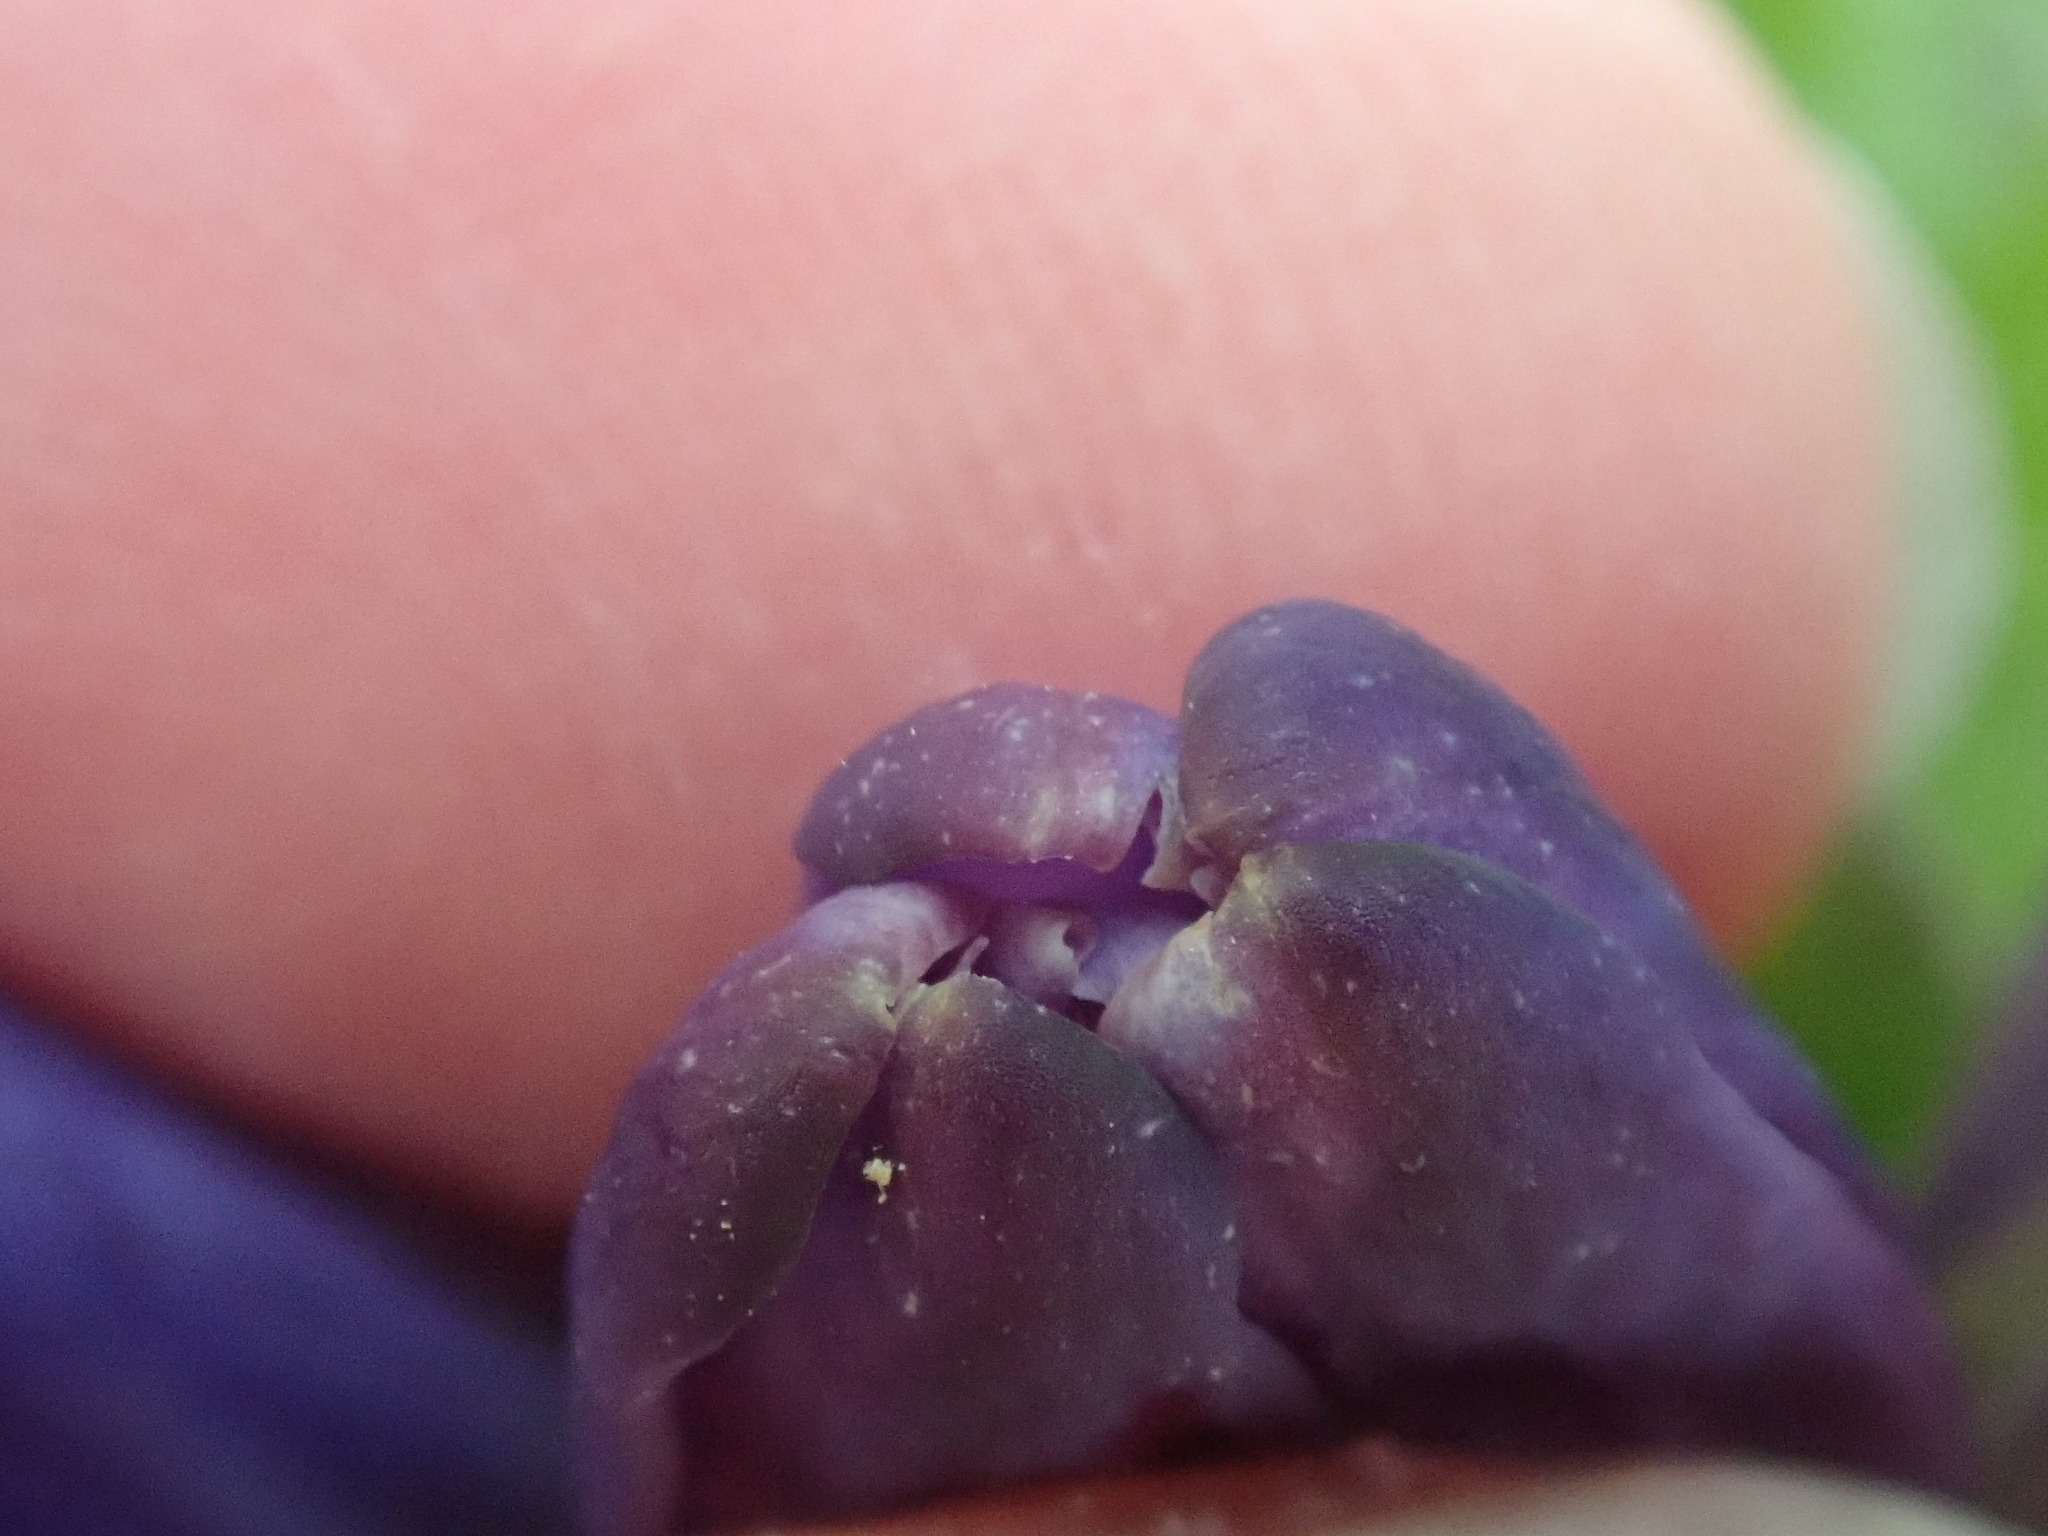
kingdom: Plantae
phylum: Tracheophyta
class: Magnoliopsida
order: Gentianales
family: Gentianaceae
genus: Gentiana
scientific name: Gentiana clausa
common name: Blind gentian
